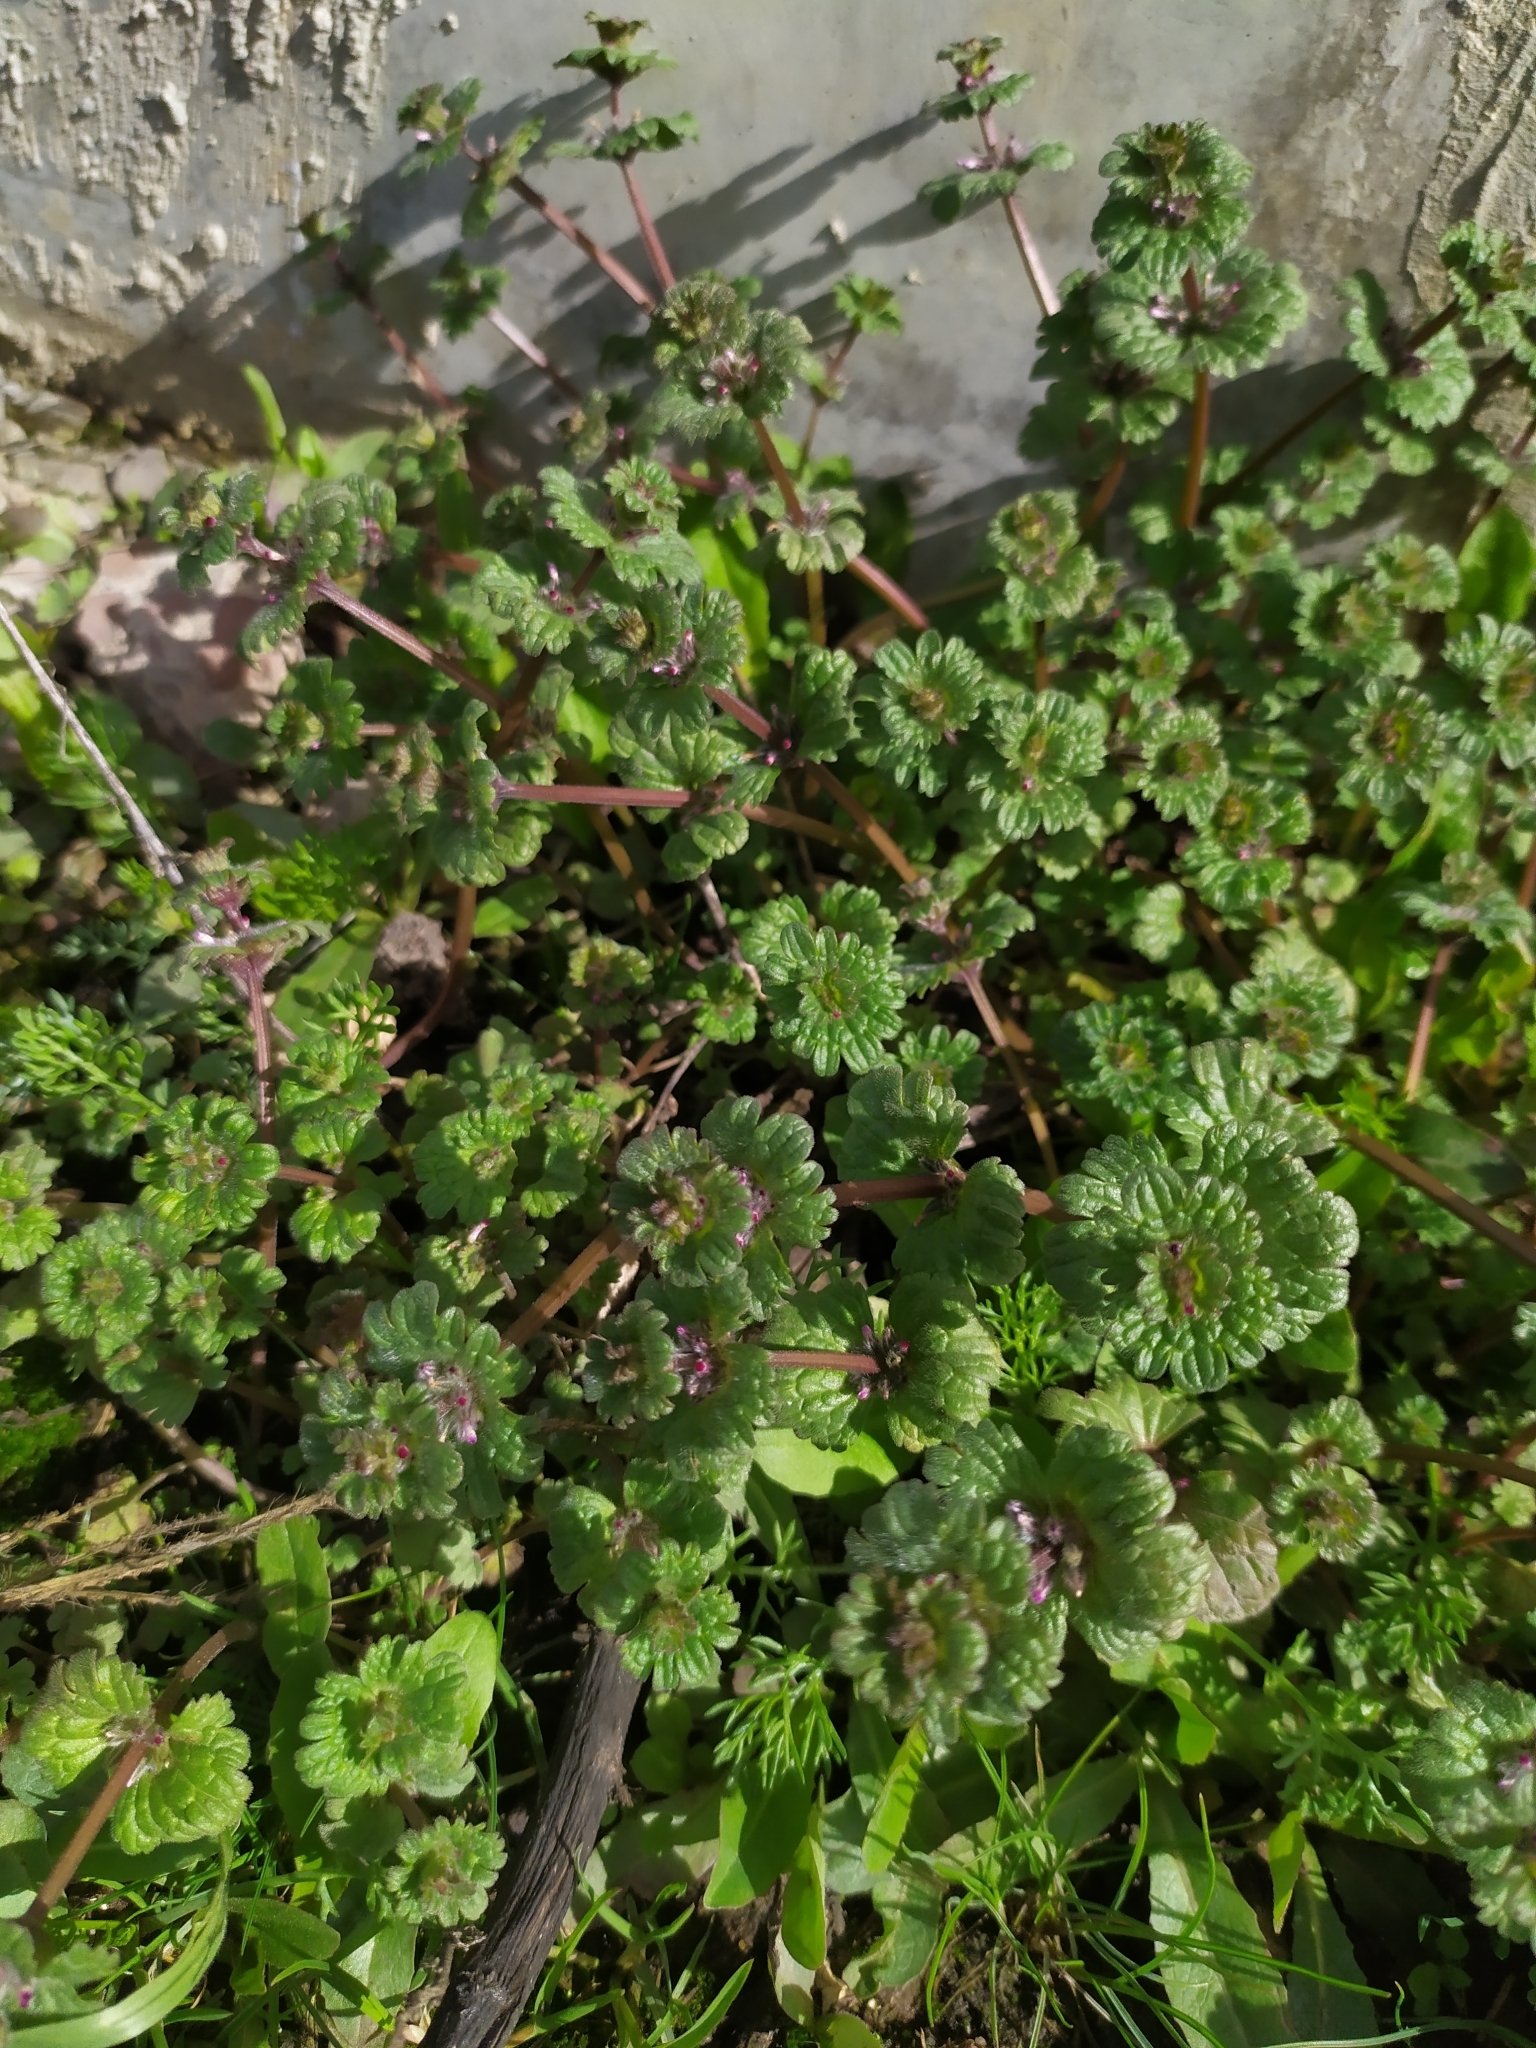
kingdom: Plantae
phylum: Tracheophyta
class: Magnoliopsida
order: Lamiales
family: Lamiaceae
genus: Lamium
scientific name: Lamium amplexicaule
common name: Henbit dead-nettle
